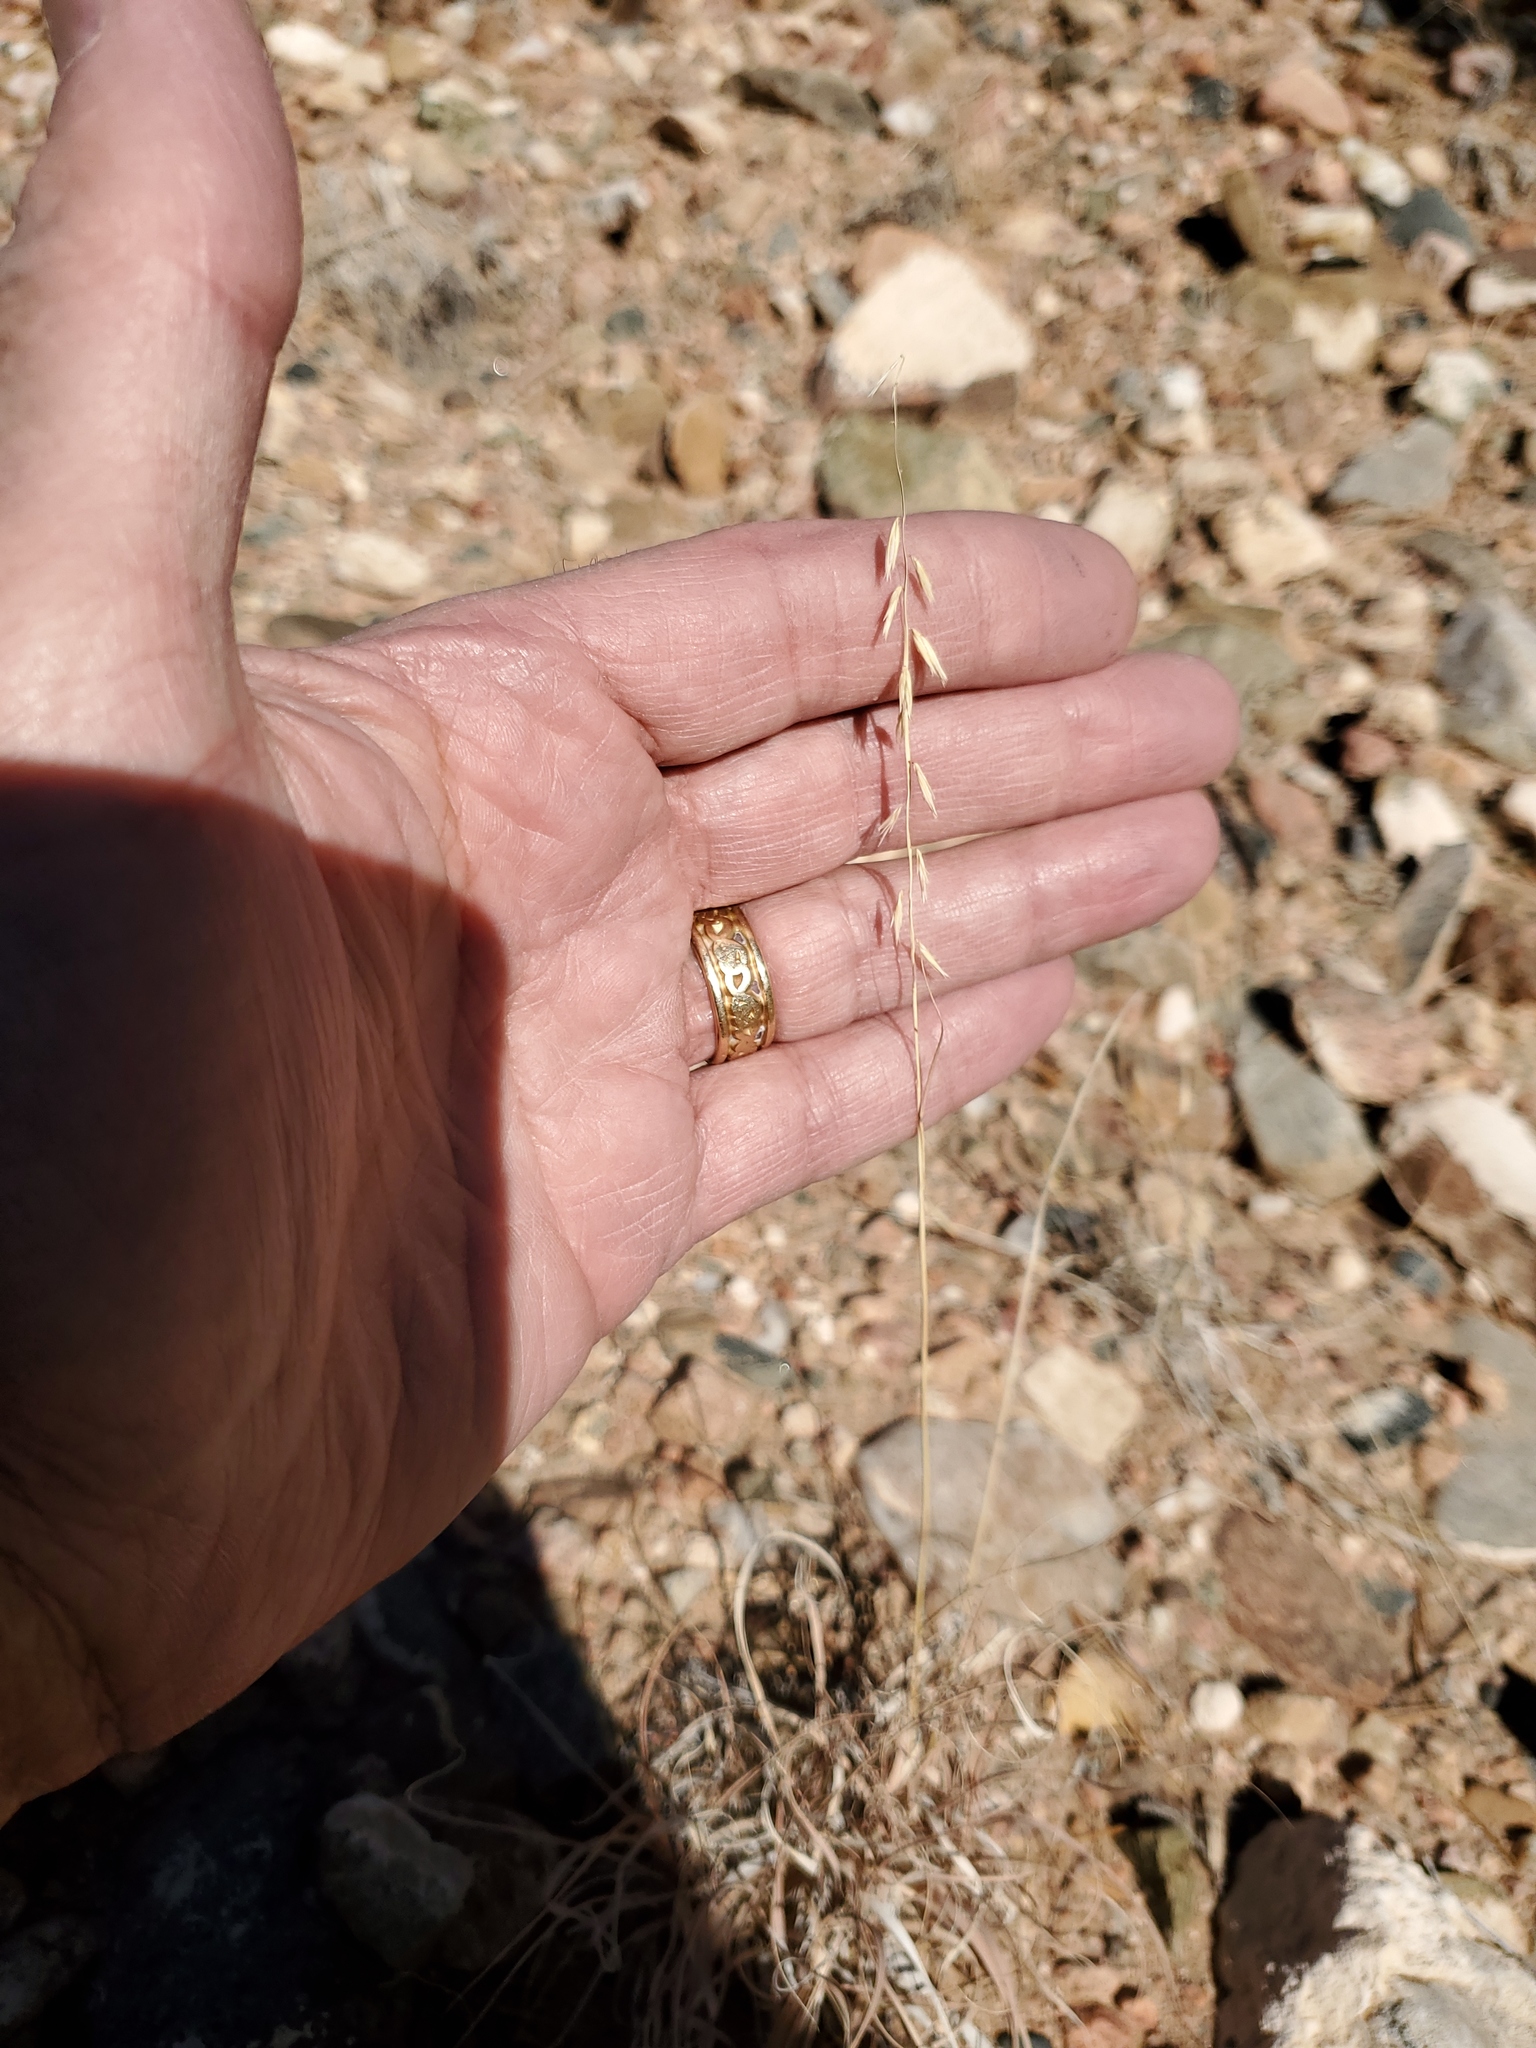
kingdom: Plantae
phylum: Tracheophyta
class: Liliopsida
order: Poales
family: Poaceae
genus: Bouteloua
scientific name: Bouteloua curtipendula
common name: Side-oats grama
